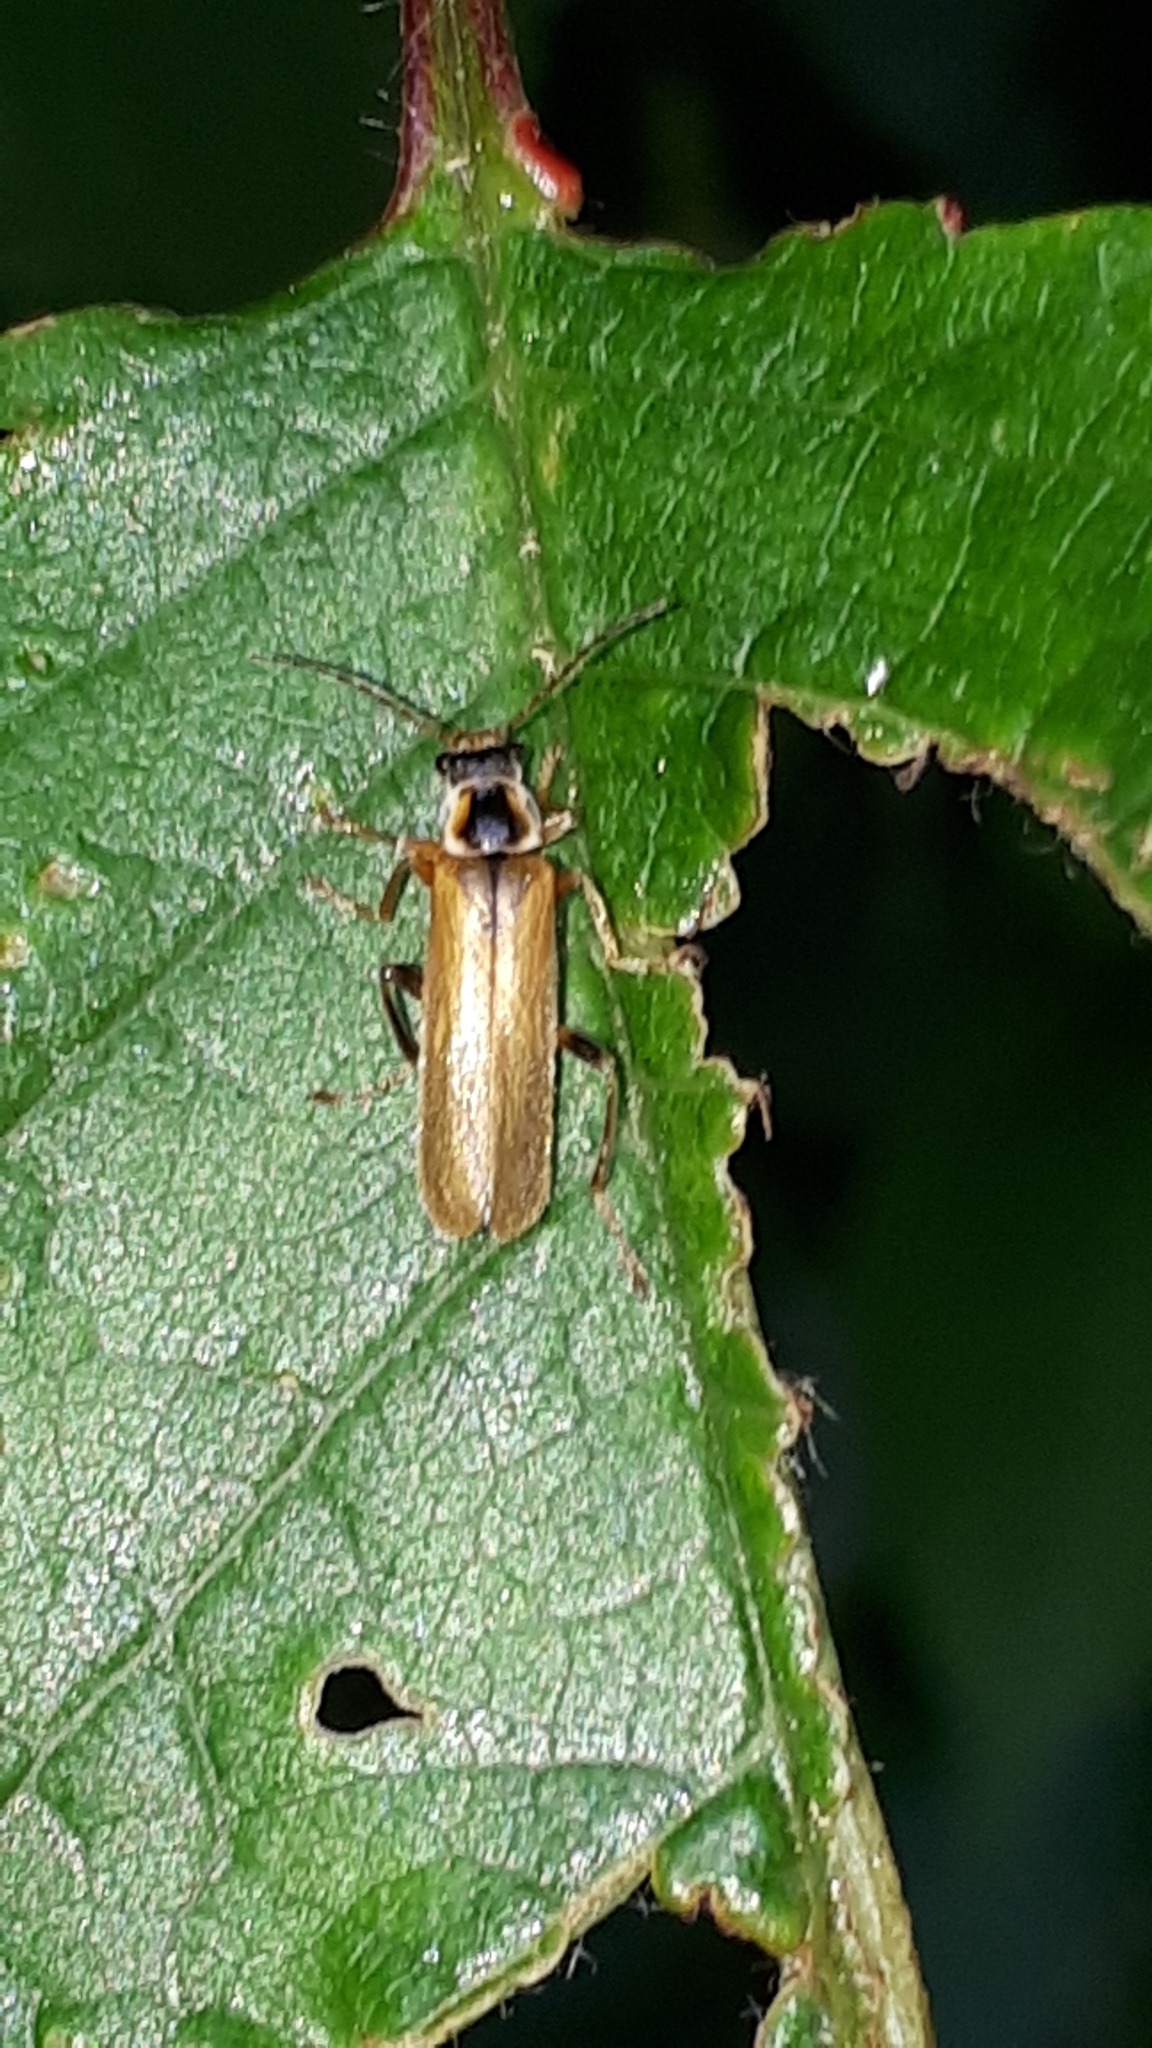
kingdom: Animalia
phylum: Arthropoda
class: Insecta
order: Coleoptera
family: Cantharidae
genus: Cantharis
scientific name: Cantharis decipiens
